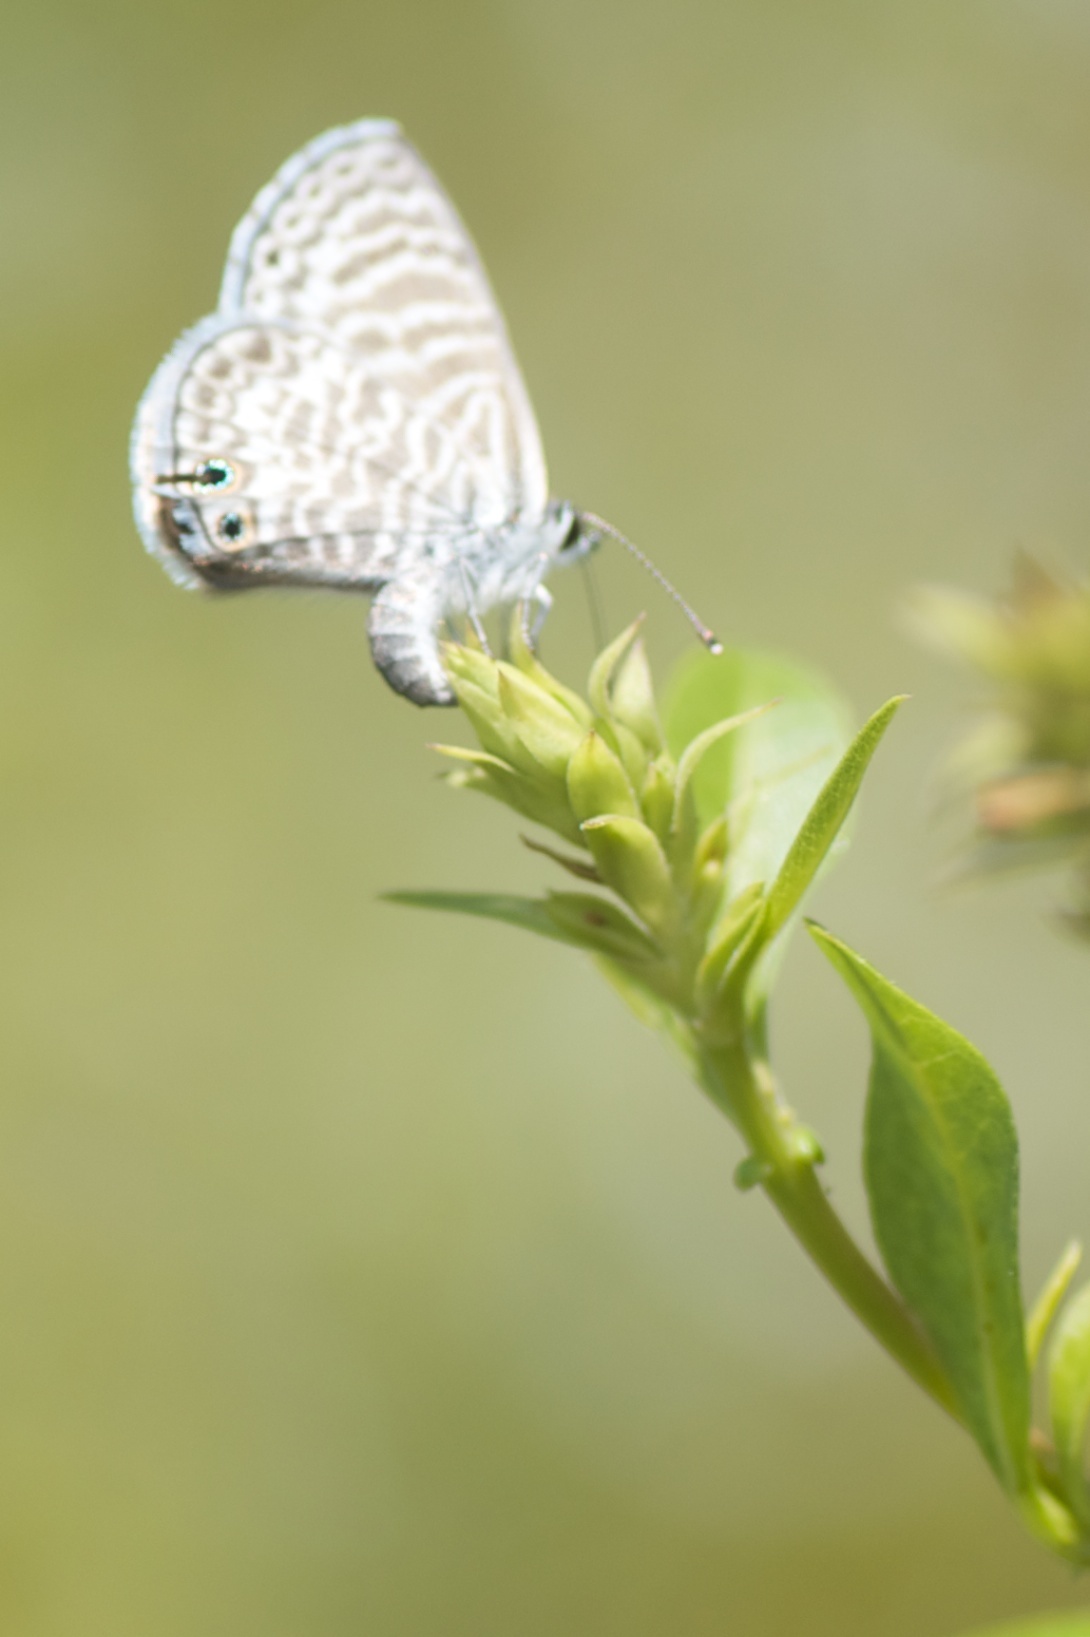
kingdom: Animalia
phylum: Arthropoda
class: Insecta
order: Lepidoptera
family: Lycaenidae
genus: Leptotes
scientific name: Leptotes marina
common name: Marine blue
